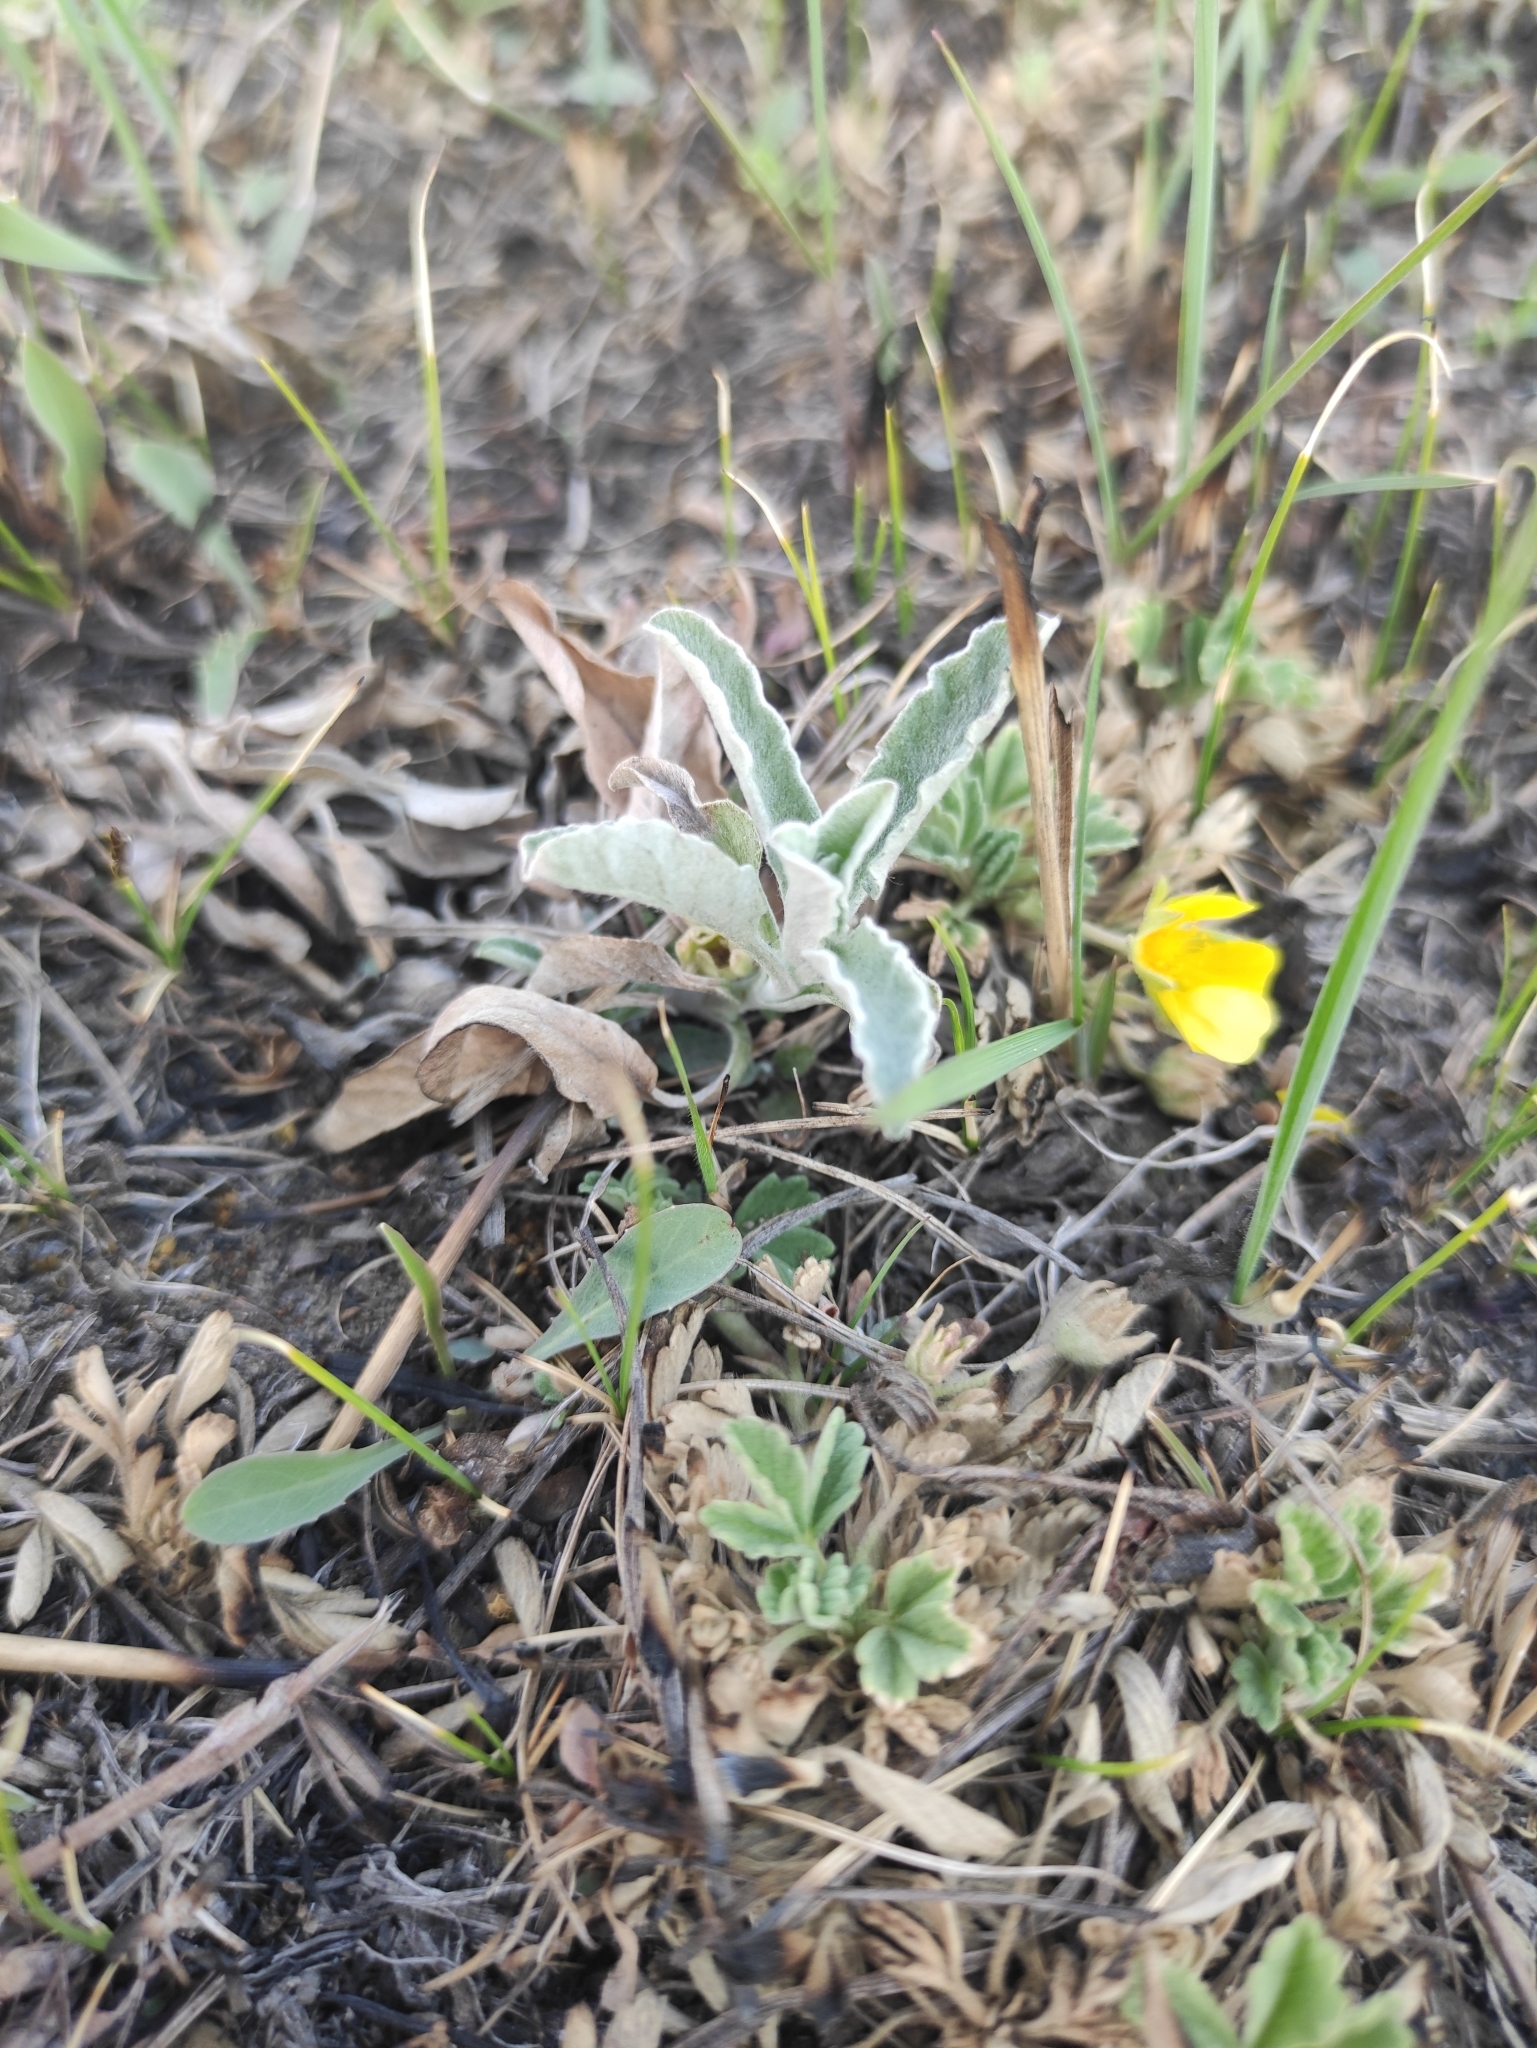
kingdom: Plantae
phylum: Tracheophyta
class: Magnoliopsida
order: Lamiales
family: Plantaginaceae
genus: Veronica
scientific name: Veronica incana
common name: Silver speedwell
